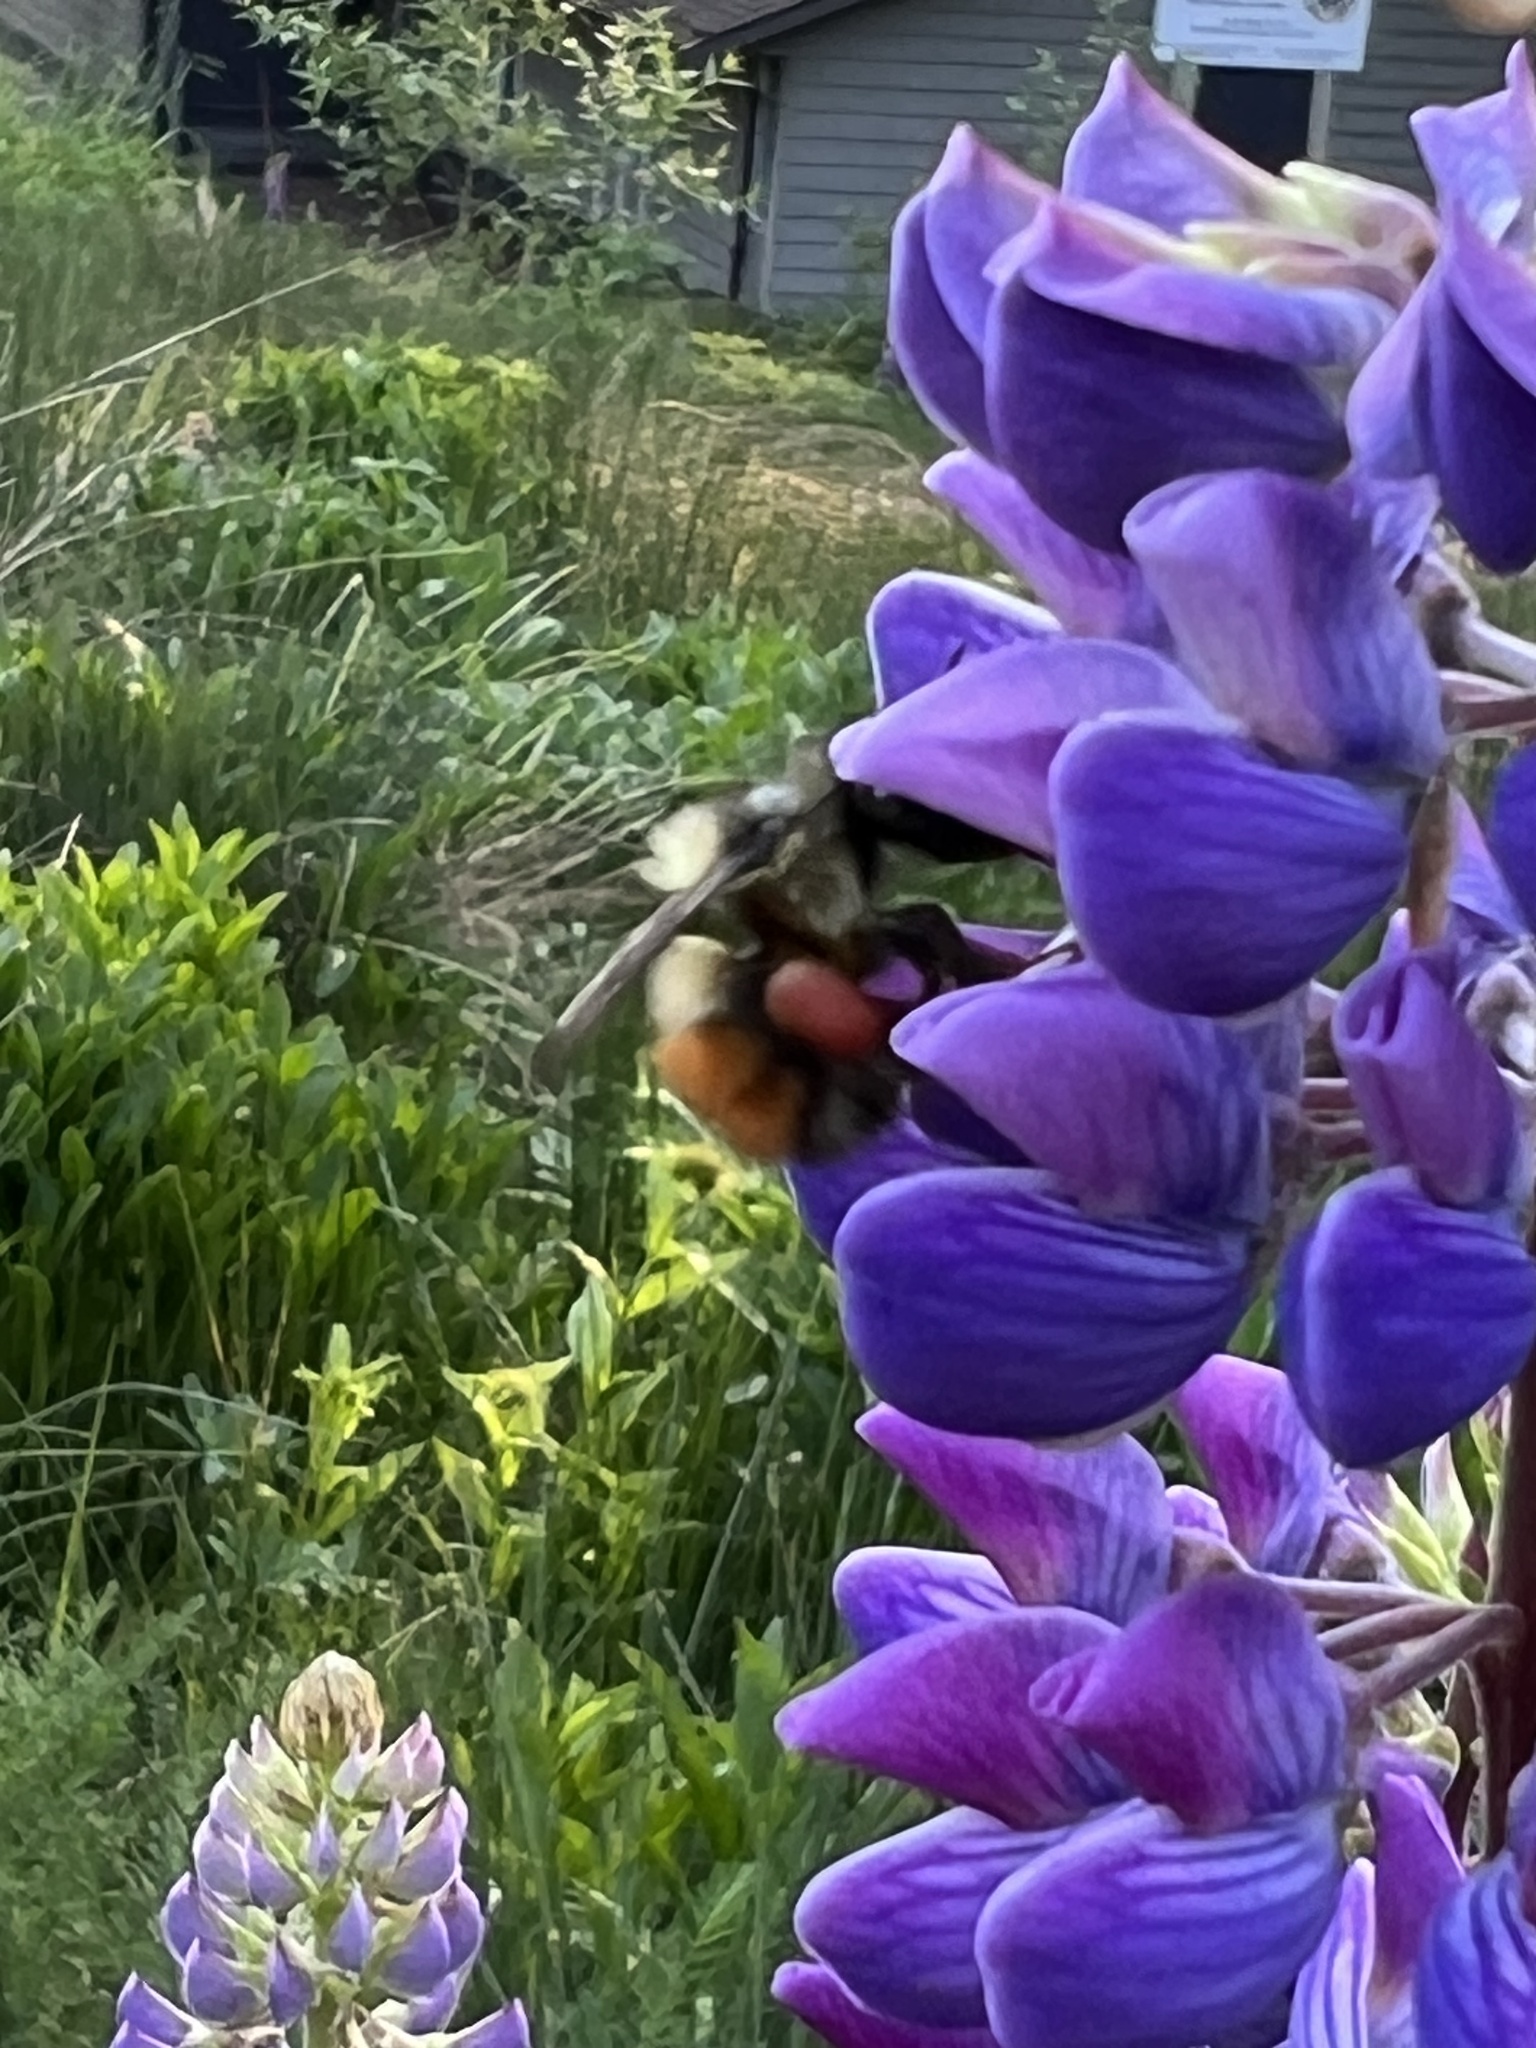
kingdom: Animalia
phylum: Arthropoda
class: Insecta
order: Hymenoptera
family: Apidae
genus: Bombus
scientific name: Bombus melanopygus
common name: Black tail bumble bee
